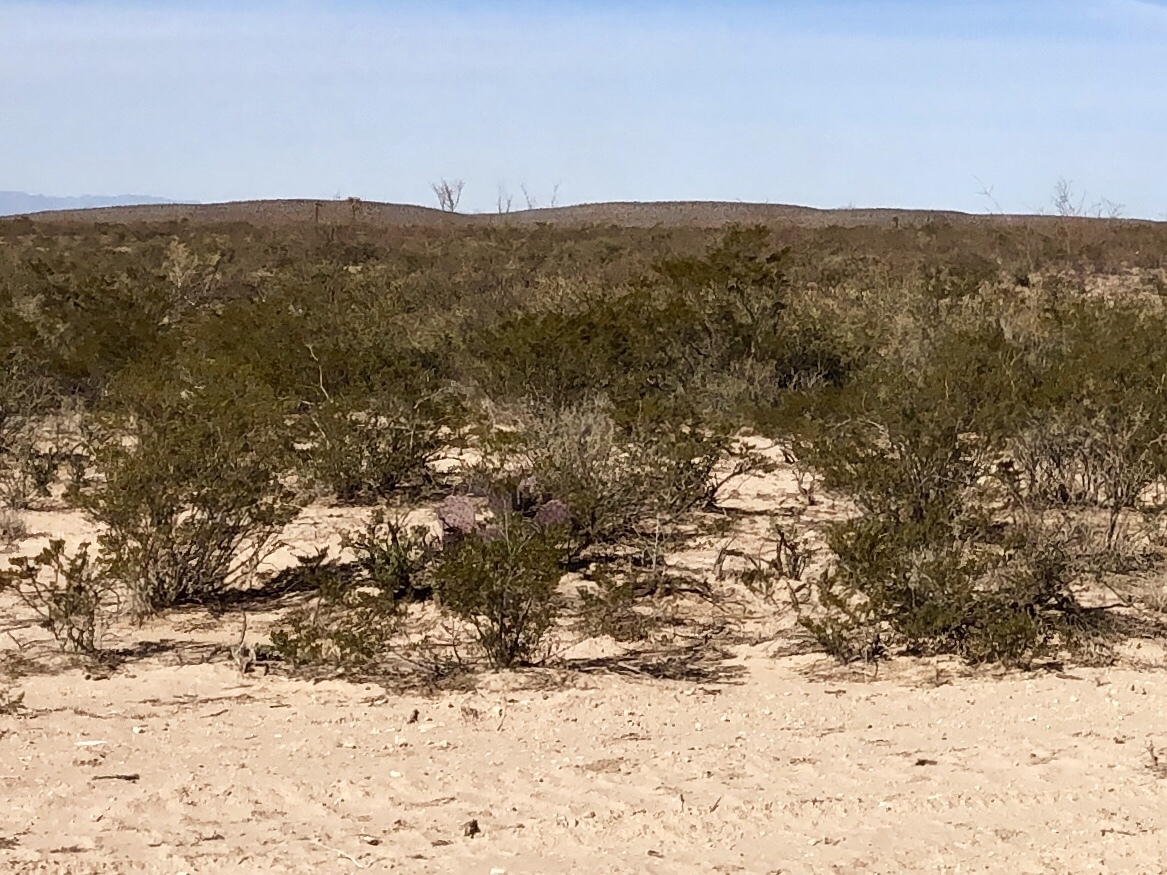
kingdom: Plantae
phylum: Tracheophyta
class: Magnoliopsida
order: Zygophyllales
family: Zygophyllaceae
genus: Larrea
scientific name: Larrea tridentata
